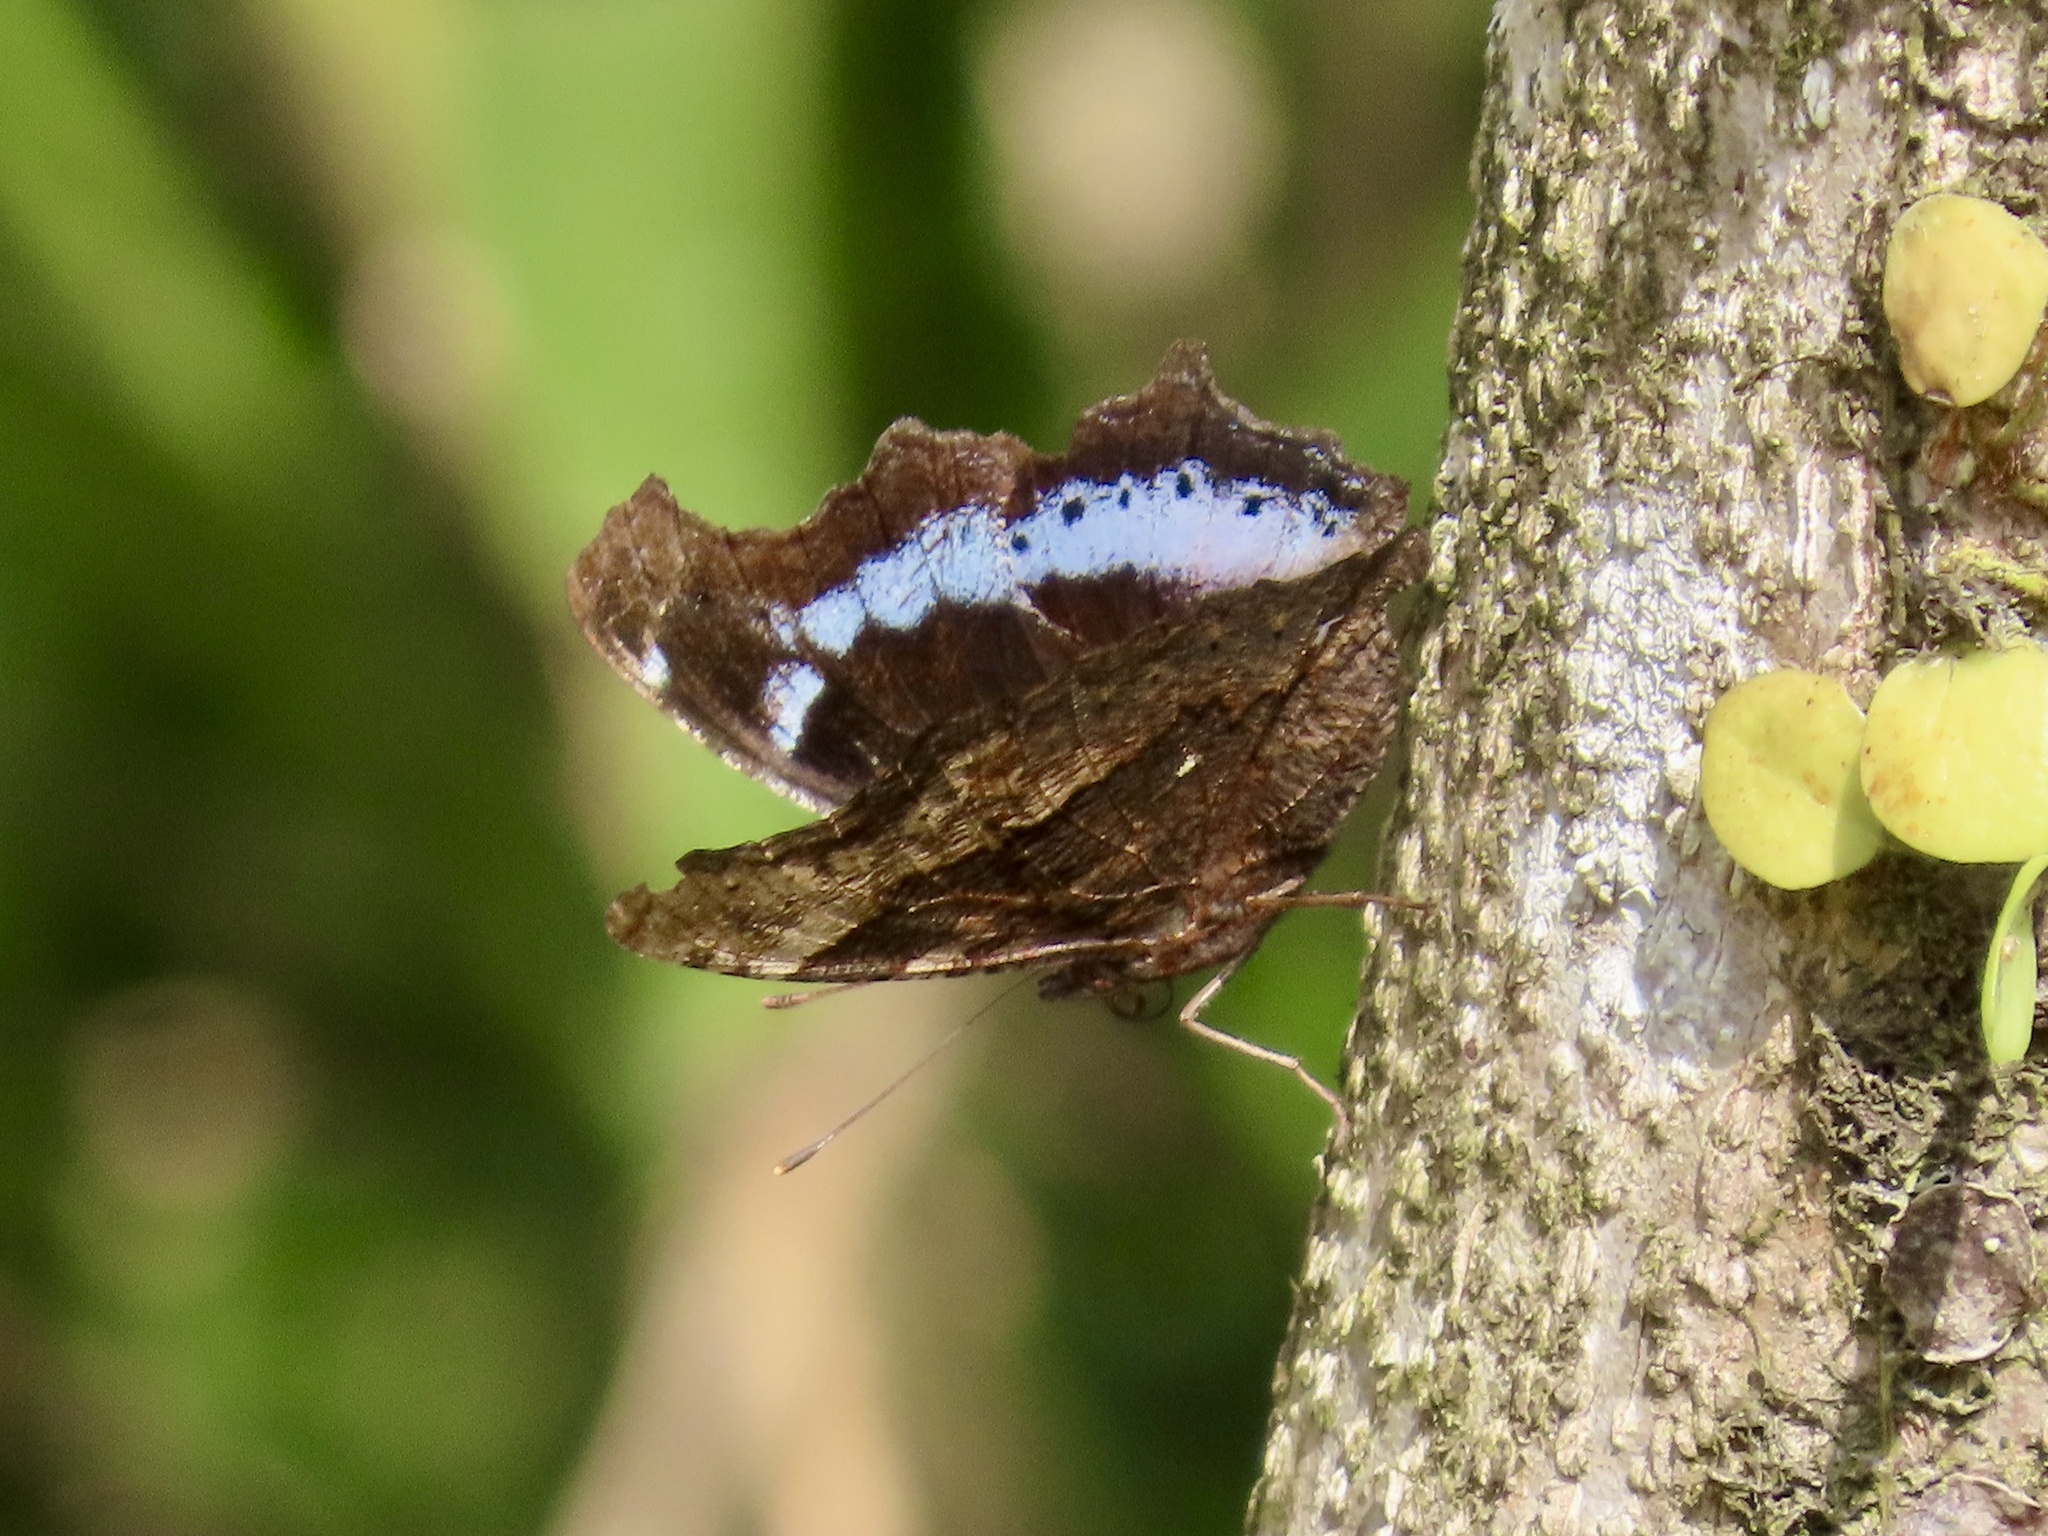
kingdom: Animalia
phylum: Arthropoda
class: Insecta
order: Lepidoptera
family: Nymphalidae
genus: Vanessa
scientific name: Vanessa Kaniska canace
